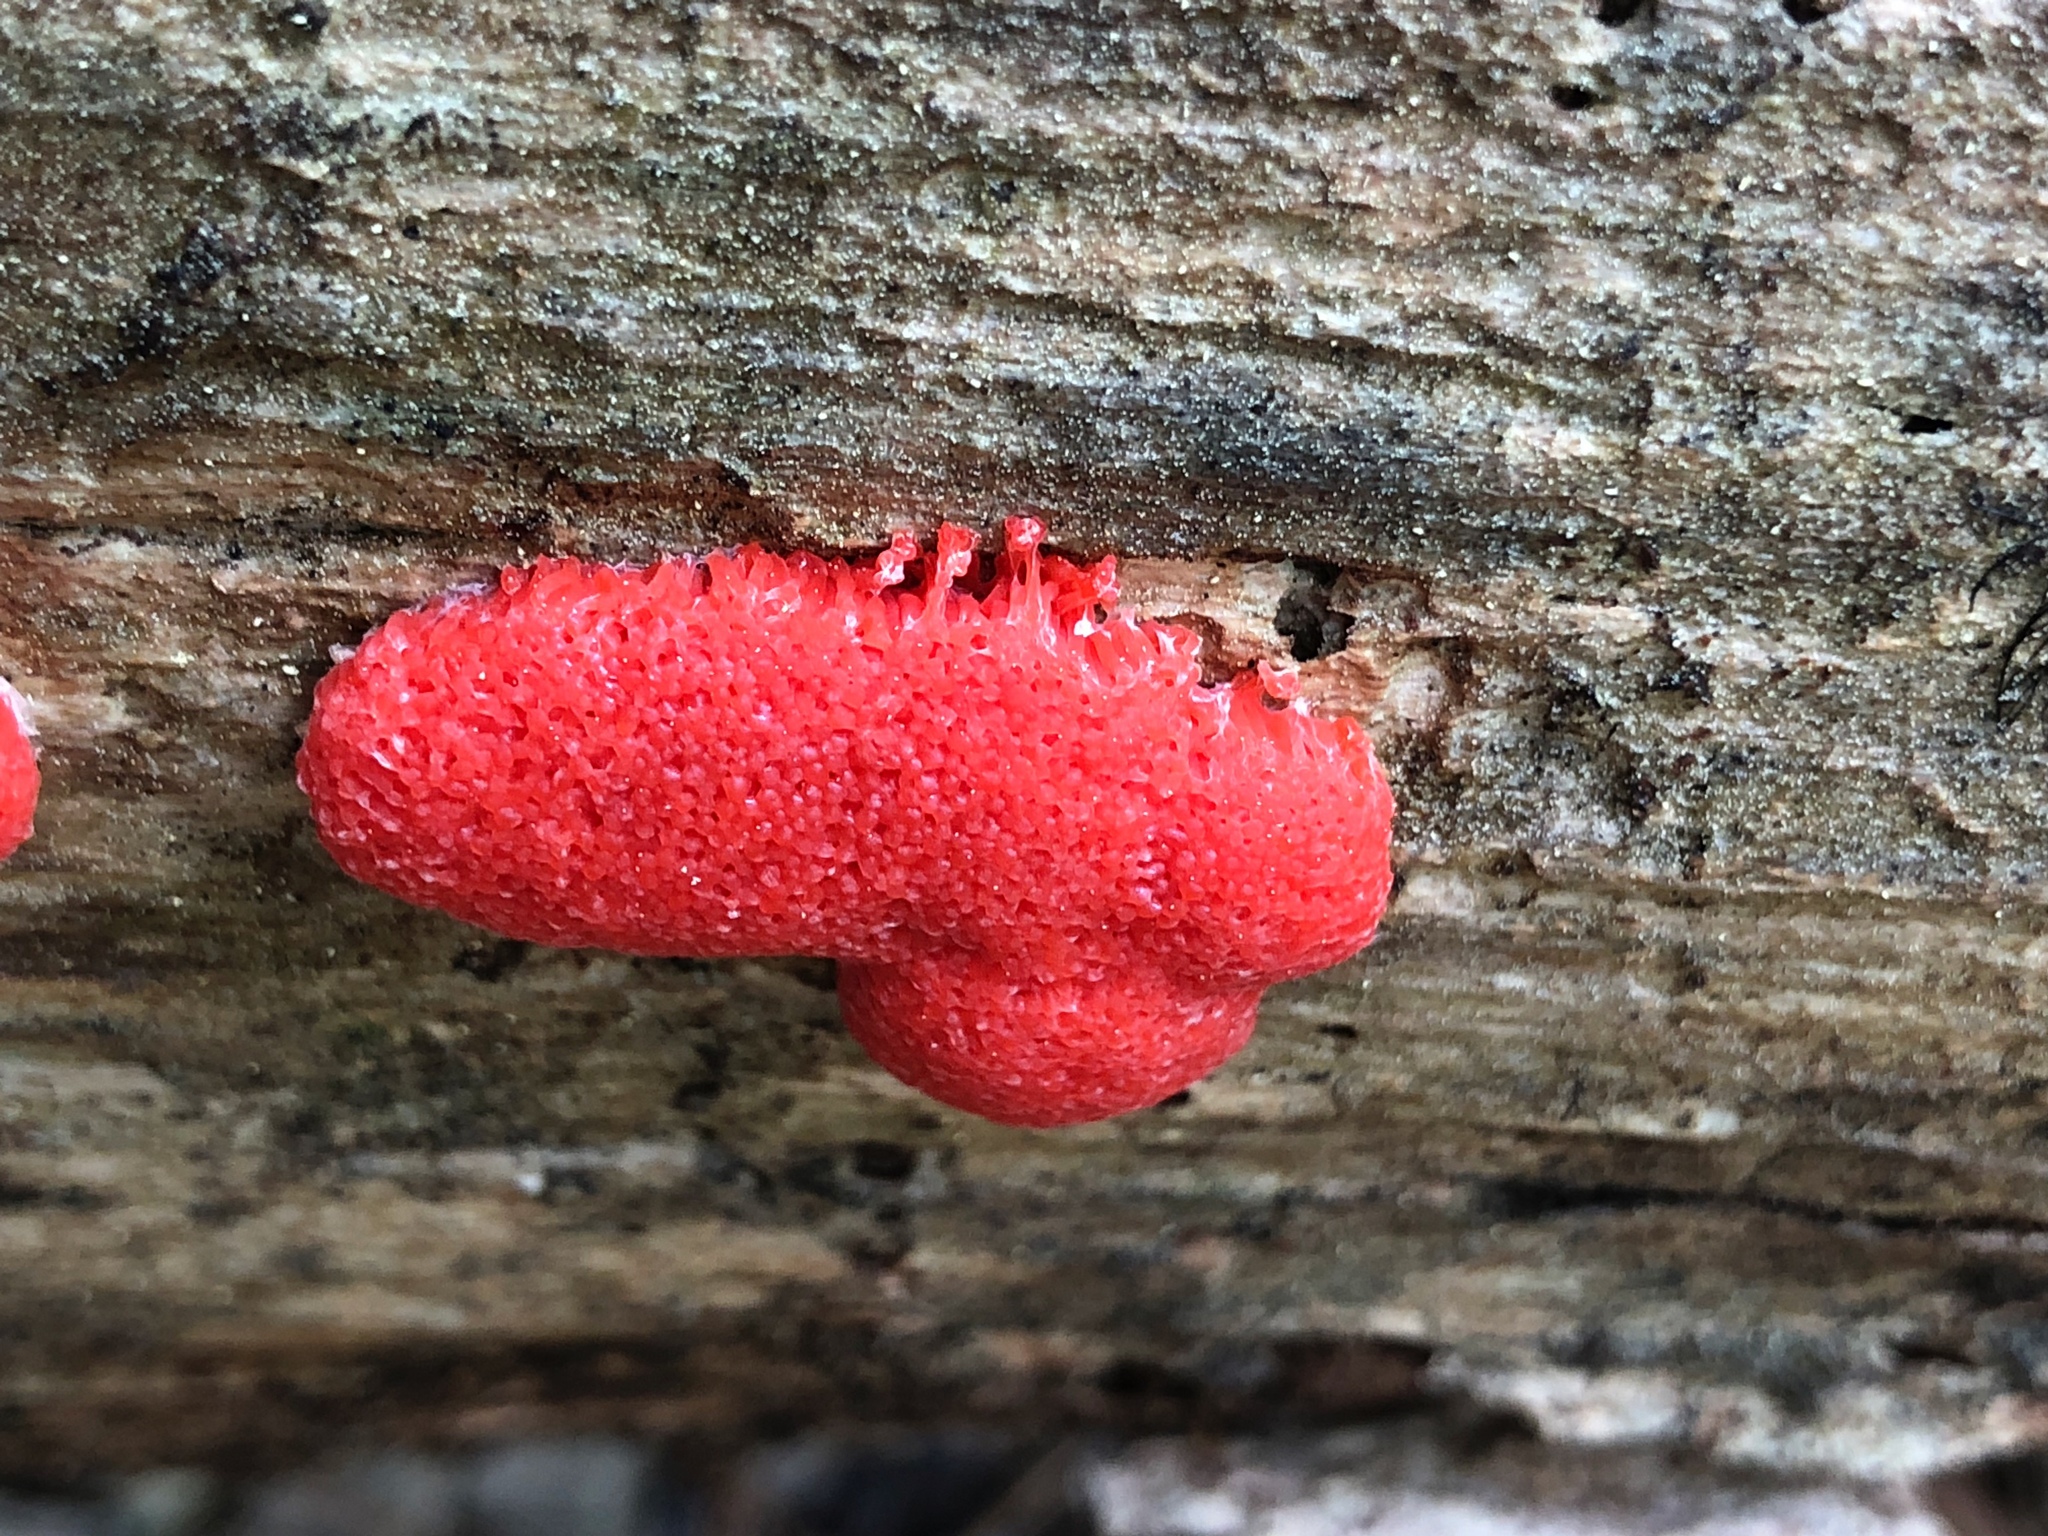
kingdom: Protozoa
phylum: Mycetozoa
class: Myxomycetes
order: Cribrariales
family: Tubiferaceae
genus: Tubifera
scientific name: Tubifera ferruginosa
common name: Red raspberry slime mold
